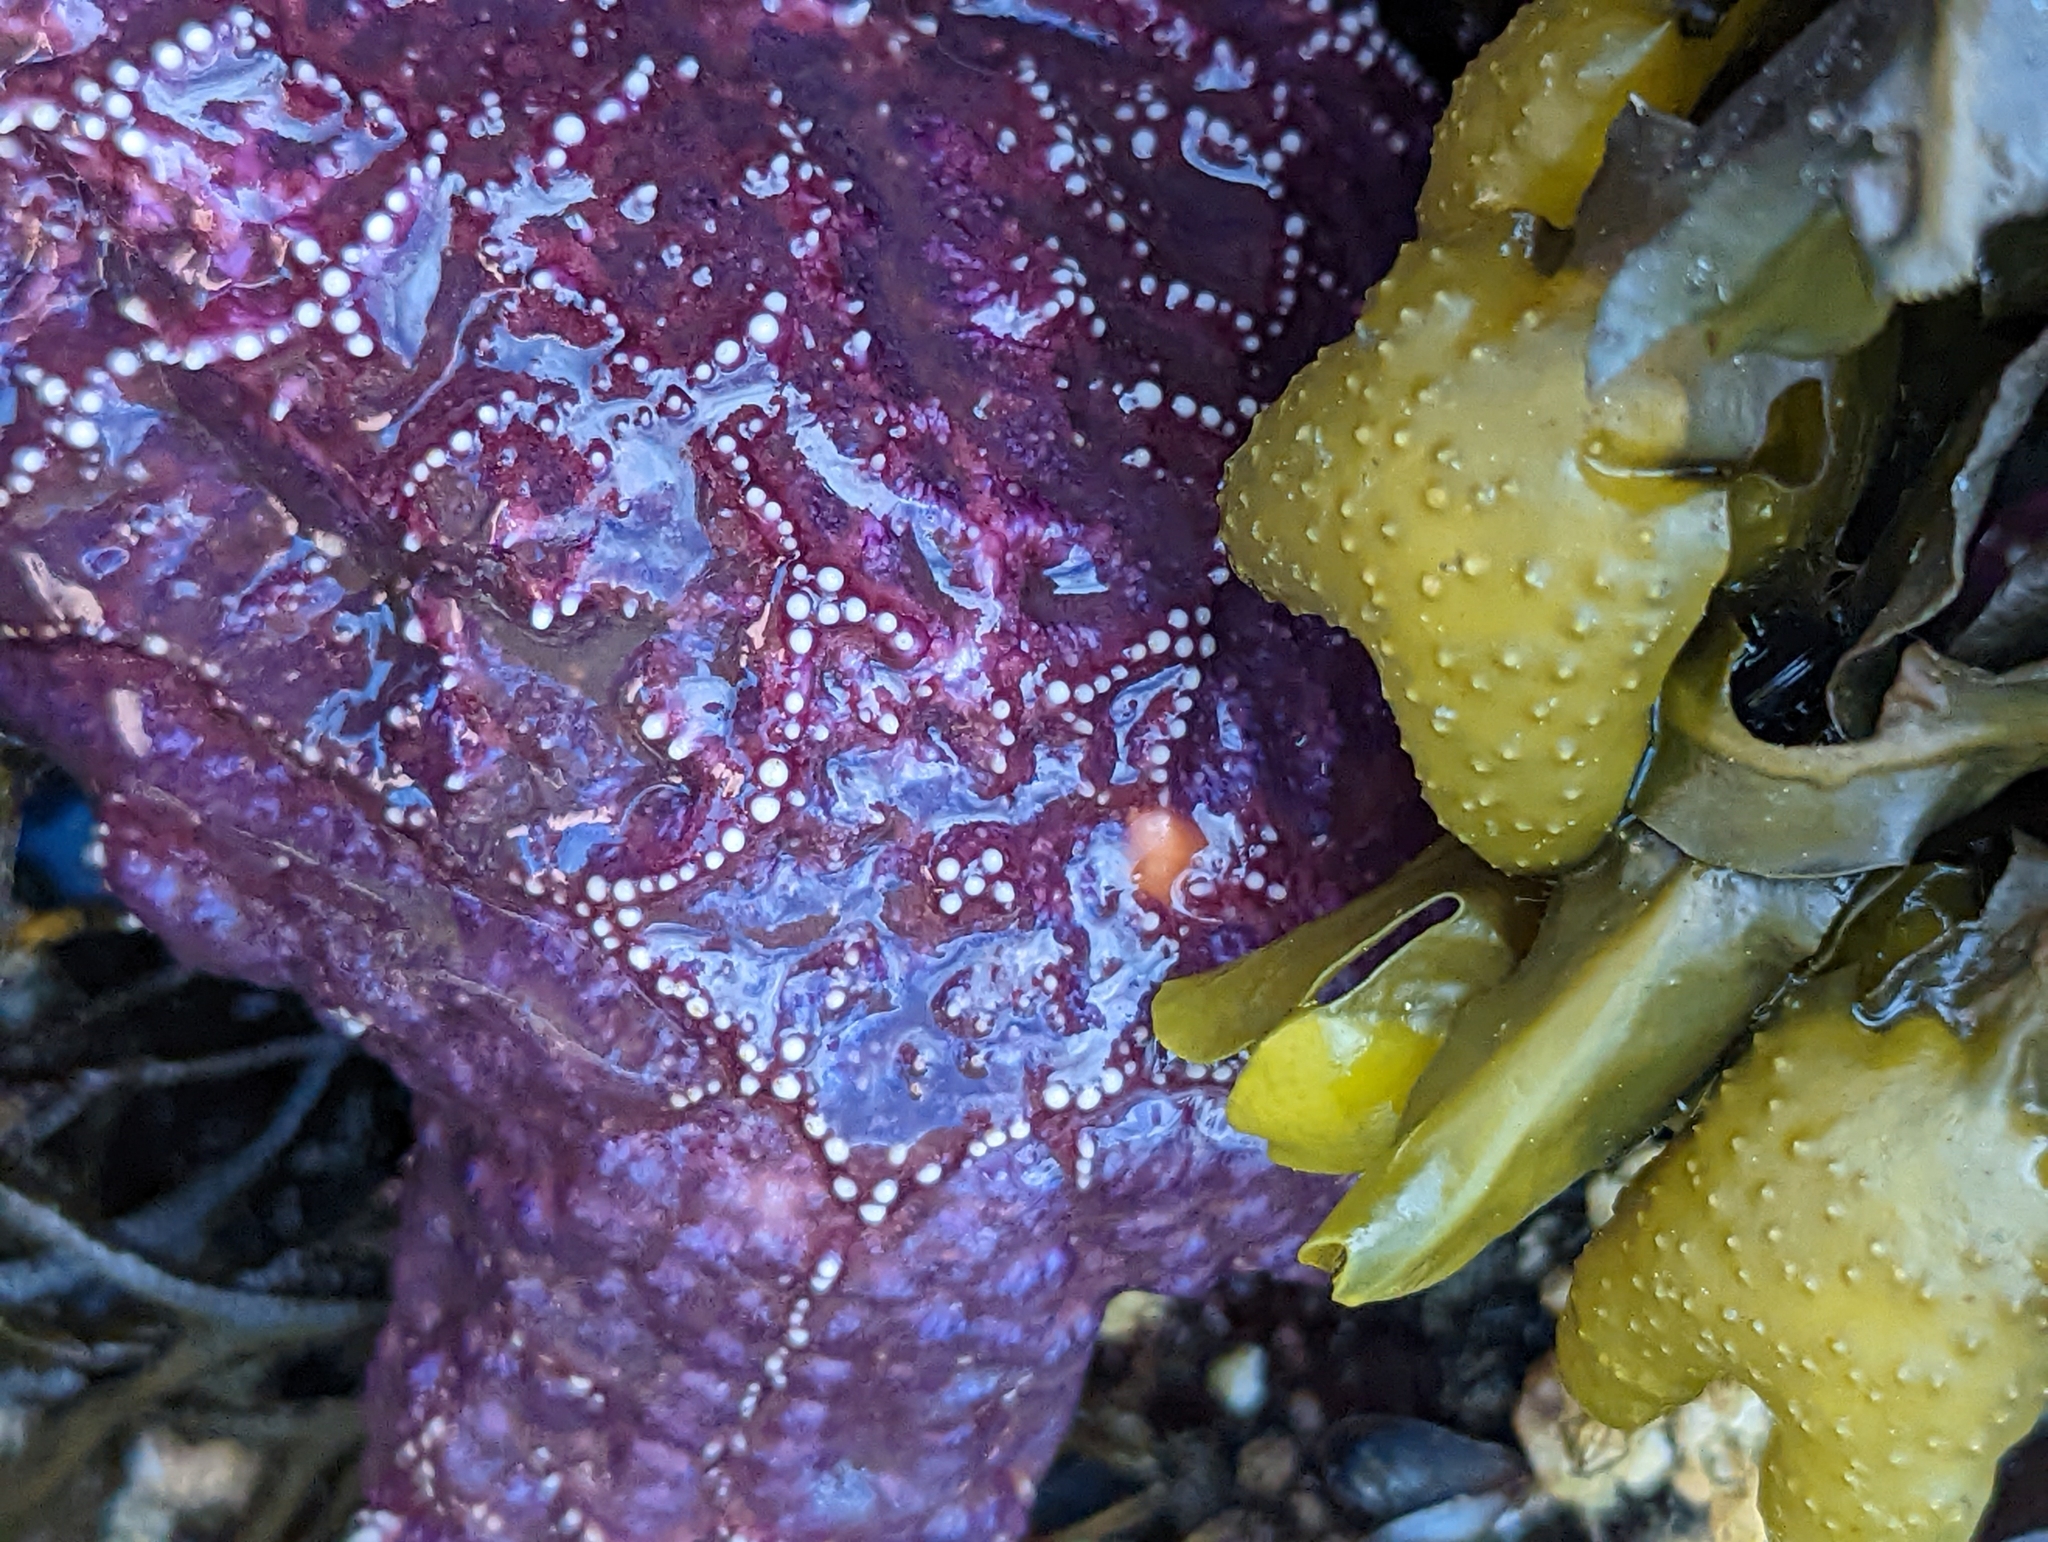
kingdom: Animalia
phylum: Echinodermata
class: Asteroidea
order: Forcipulatida
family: Asteriidae
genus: Pisaster
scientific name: Pisaster ochraceus
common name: Ochre stars
